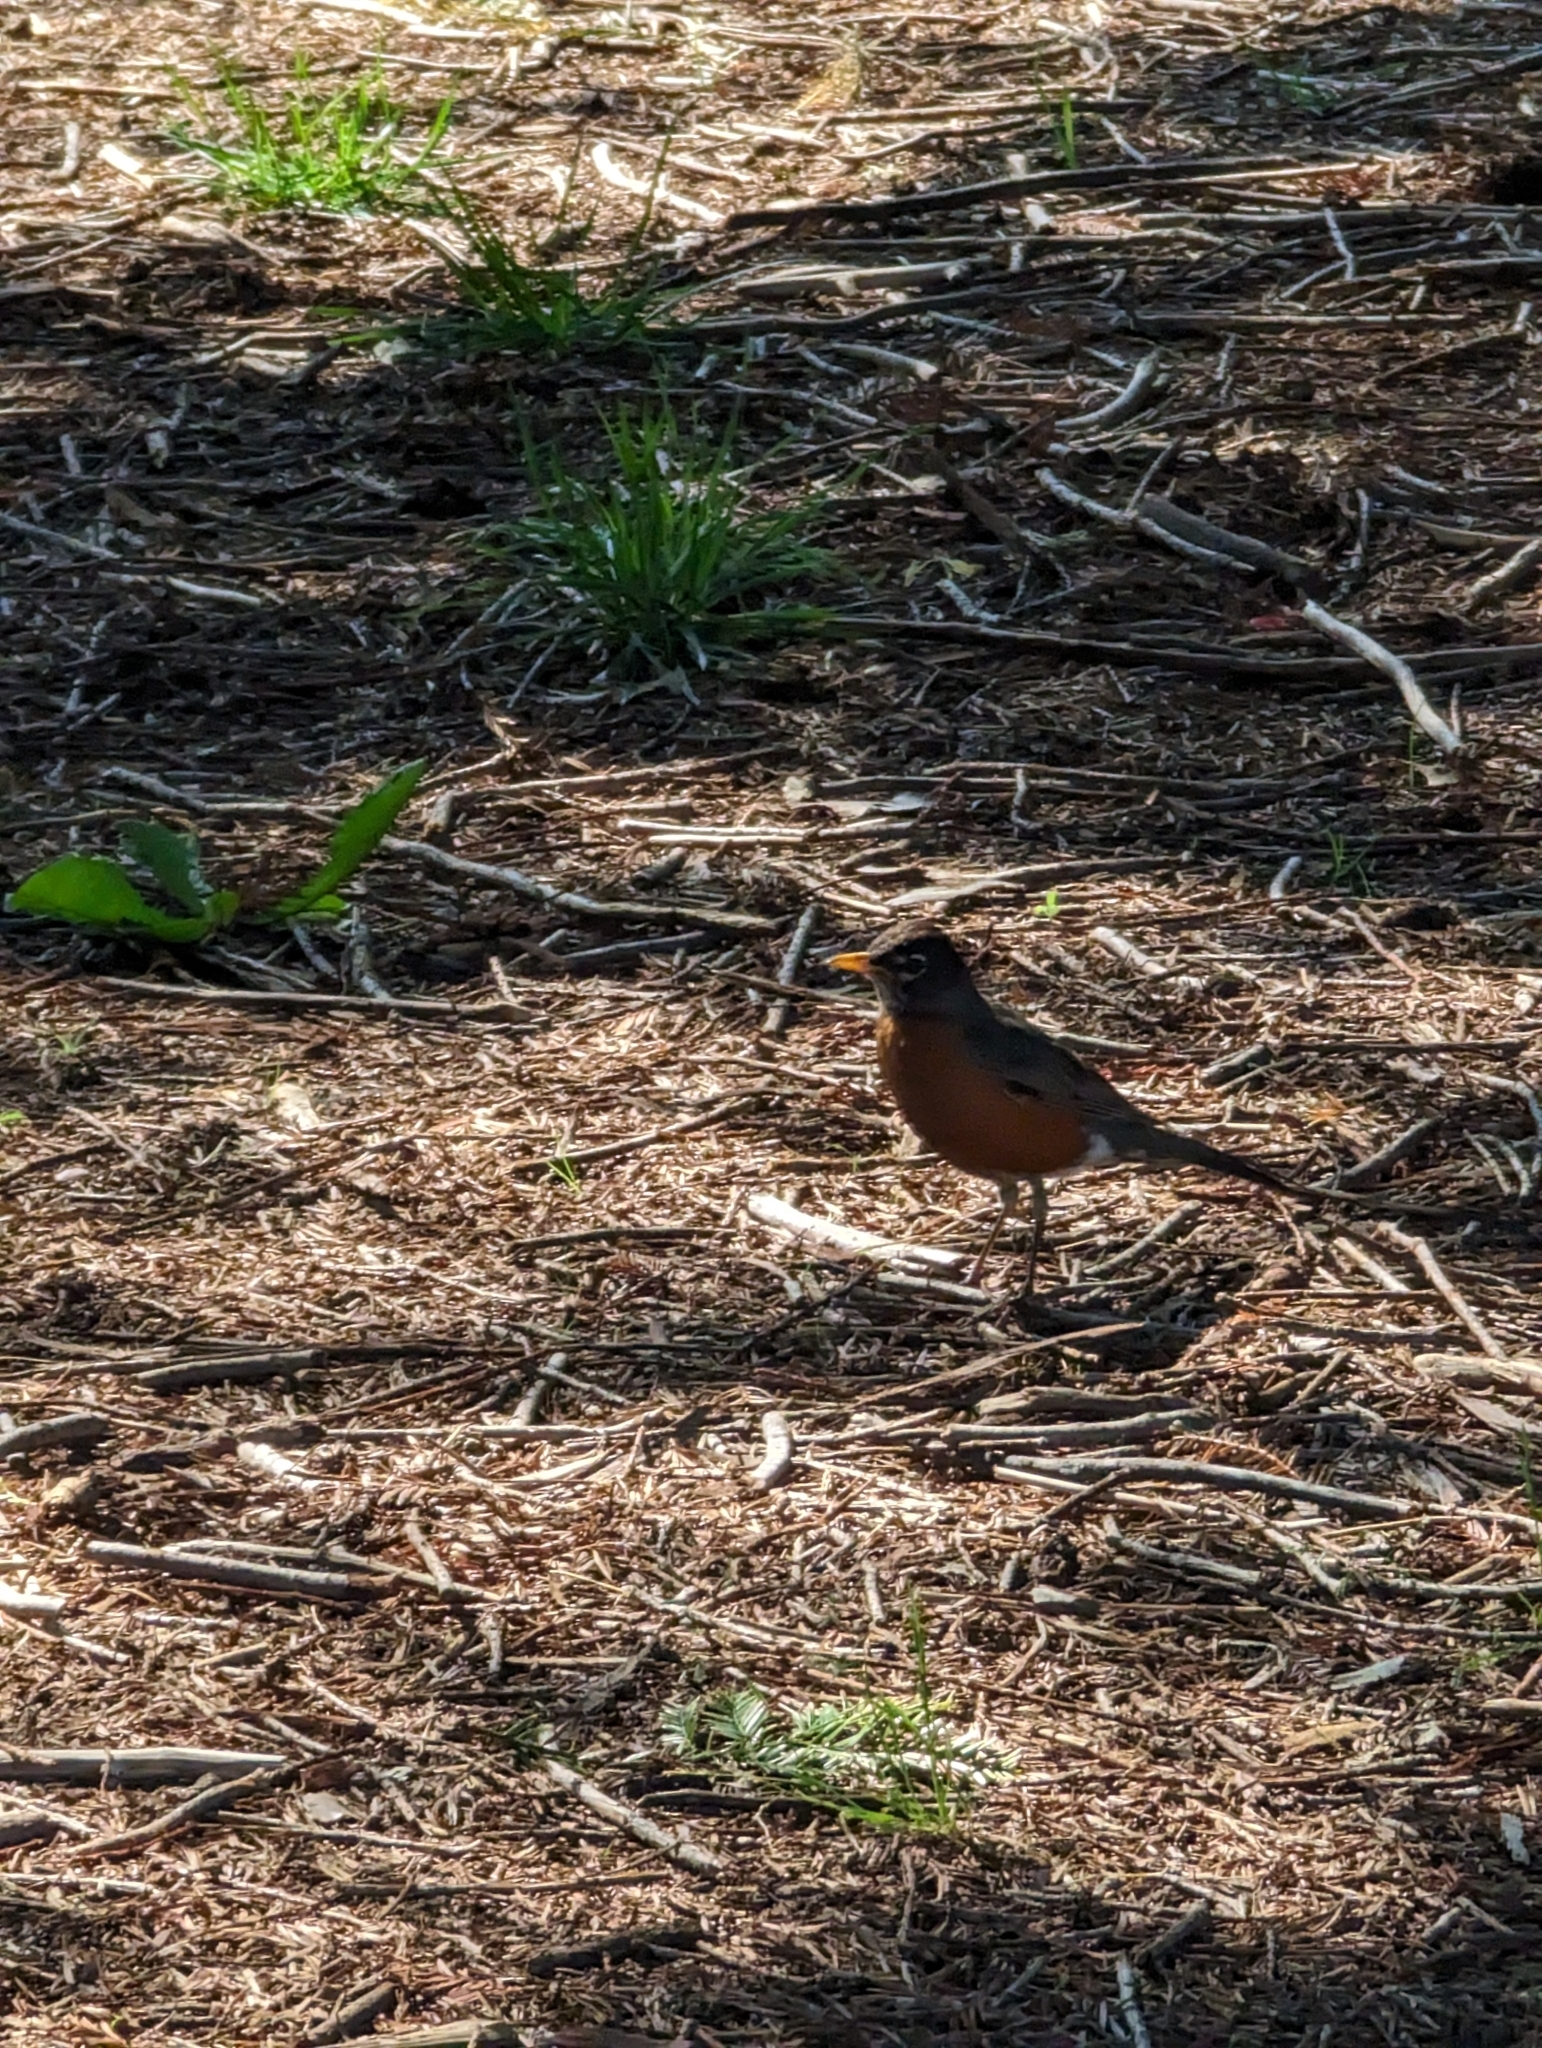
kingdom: Animalia
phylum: Chordata
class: Aves
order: Passeriformes
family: Turdidae
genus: Turdus
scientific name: Turdus migratorius
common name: American robin
